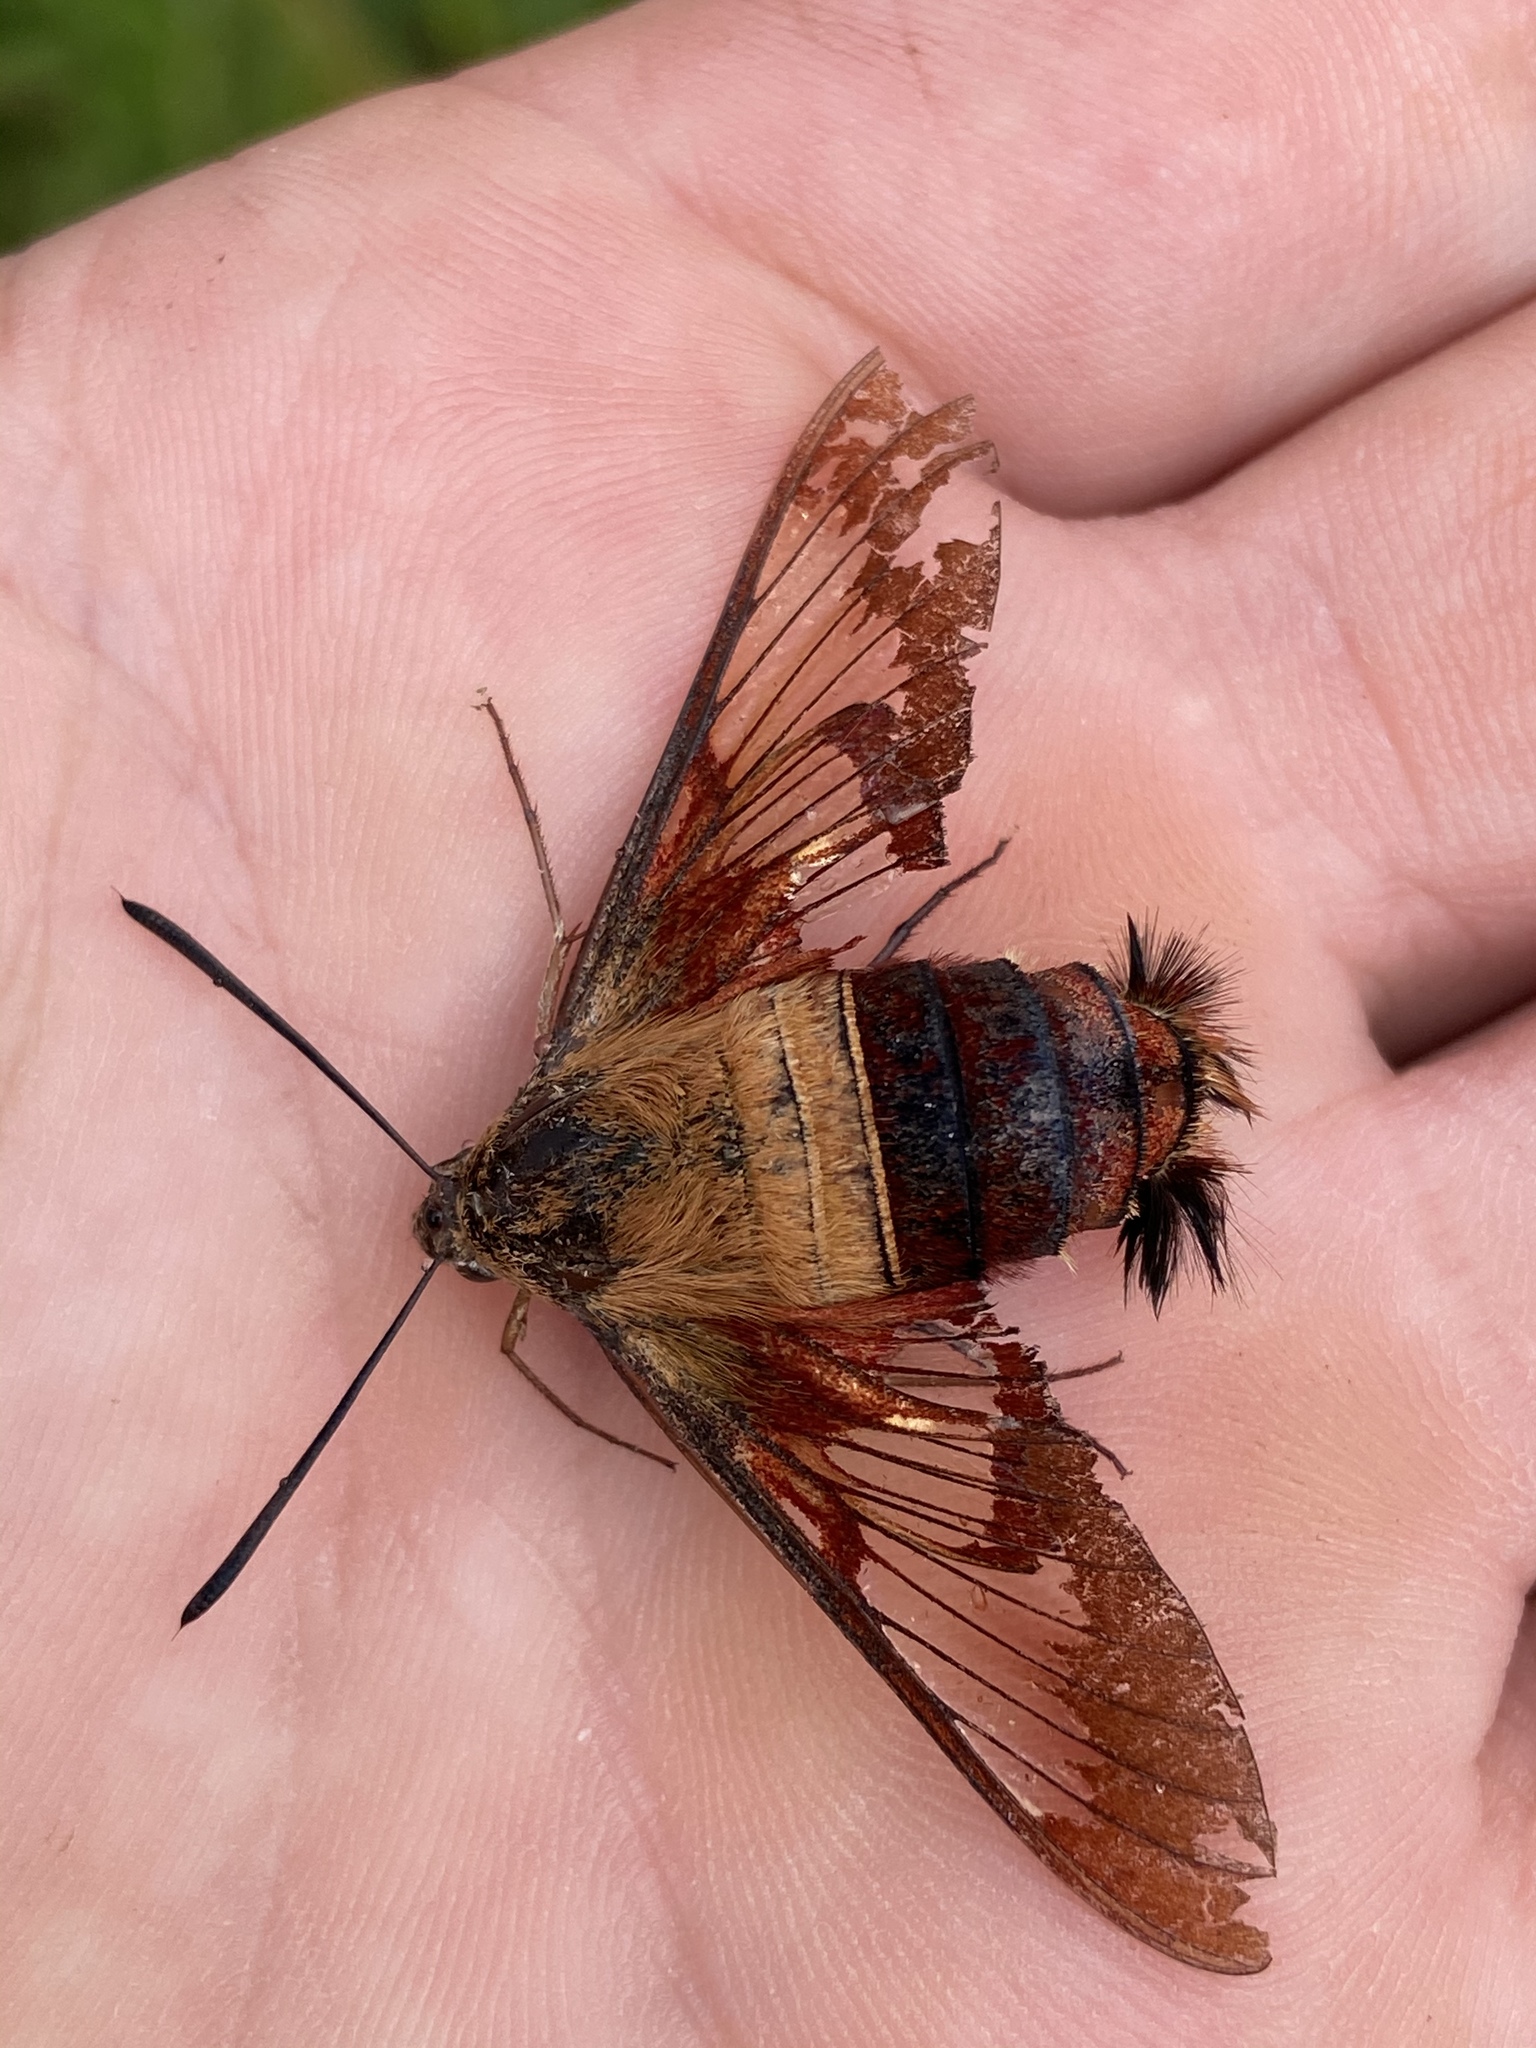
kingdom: Animalia
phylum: Arthropoda
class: Insecta
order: Lepidoptera
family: Sphingidae
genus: Hemaris
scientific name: Hemaris thysbe
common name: Common clear-wing
